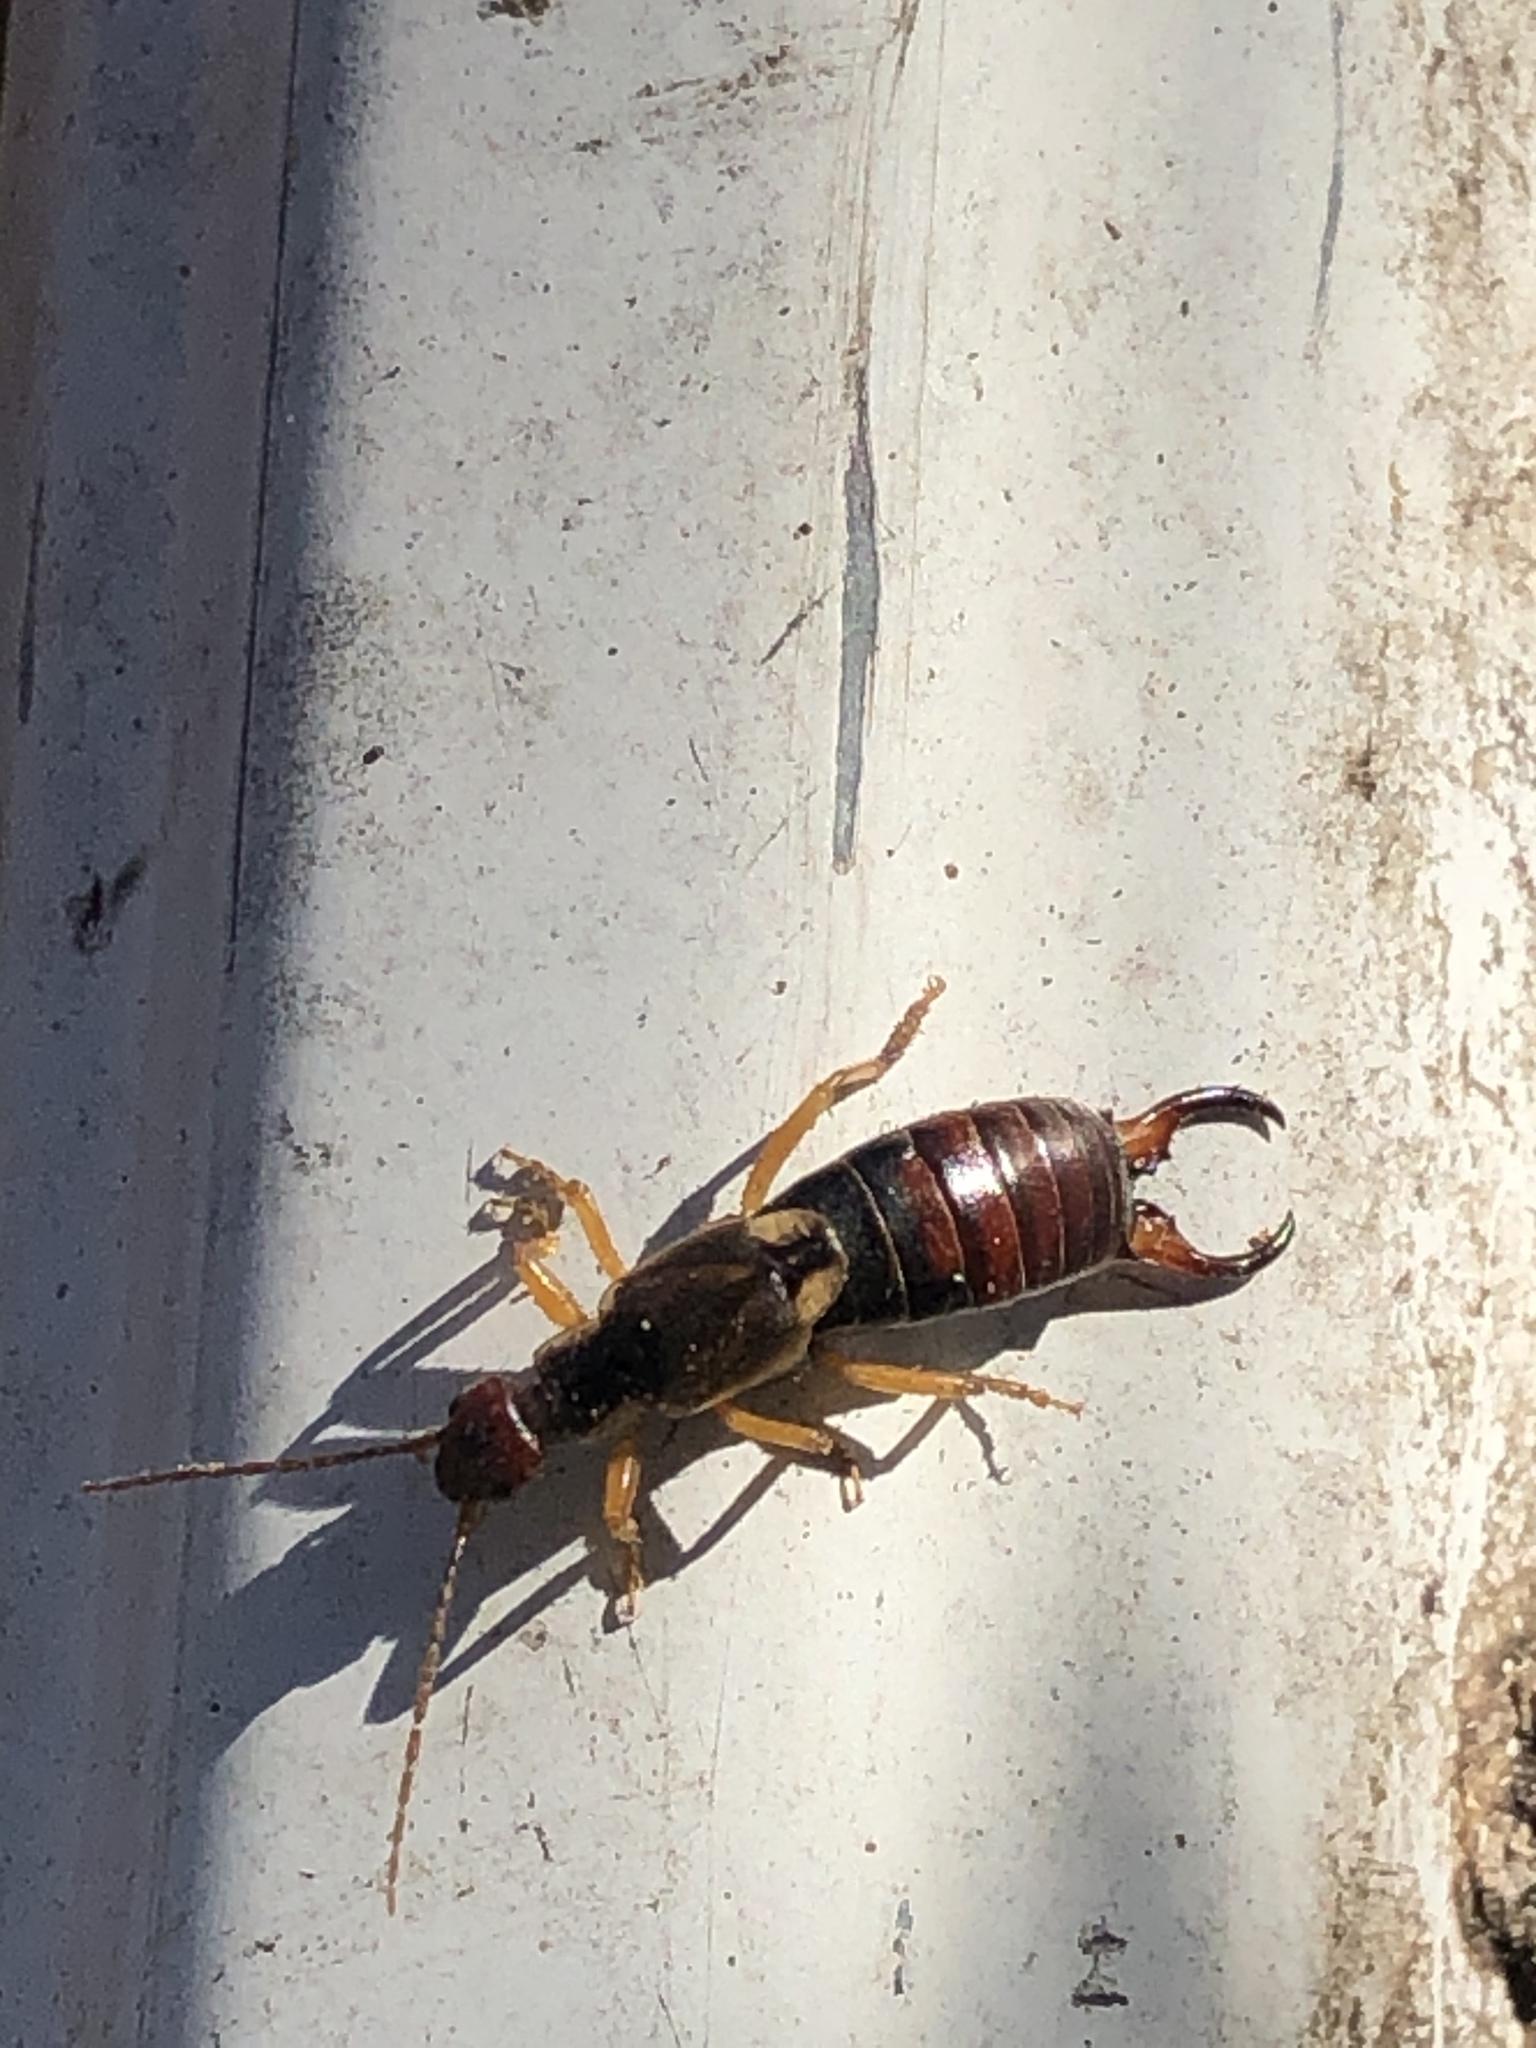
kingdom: Animalia
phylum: Arthropoda
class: Insecta
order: Dermaptera
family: Forficulidae
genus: Forficula
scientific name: Forficula
